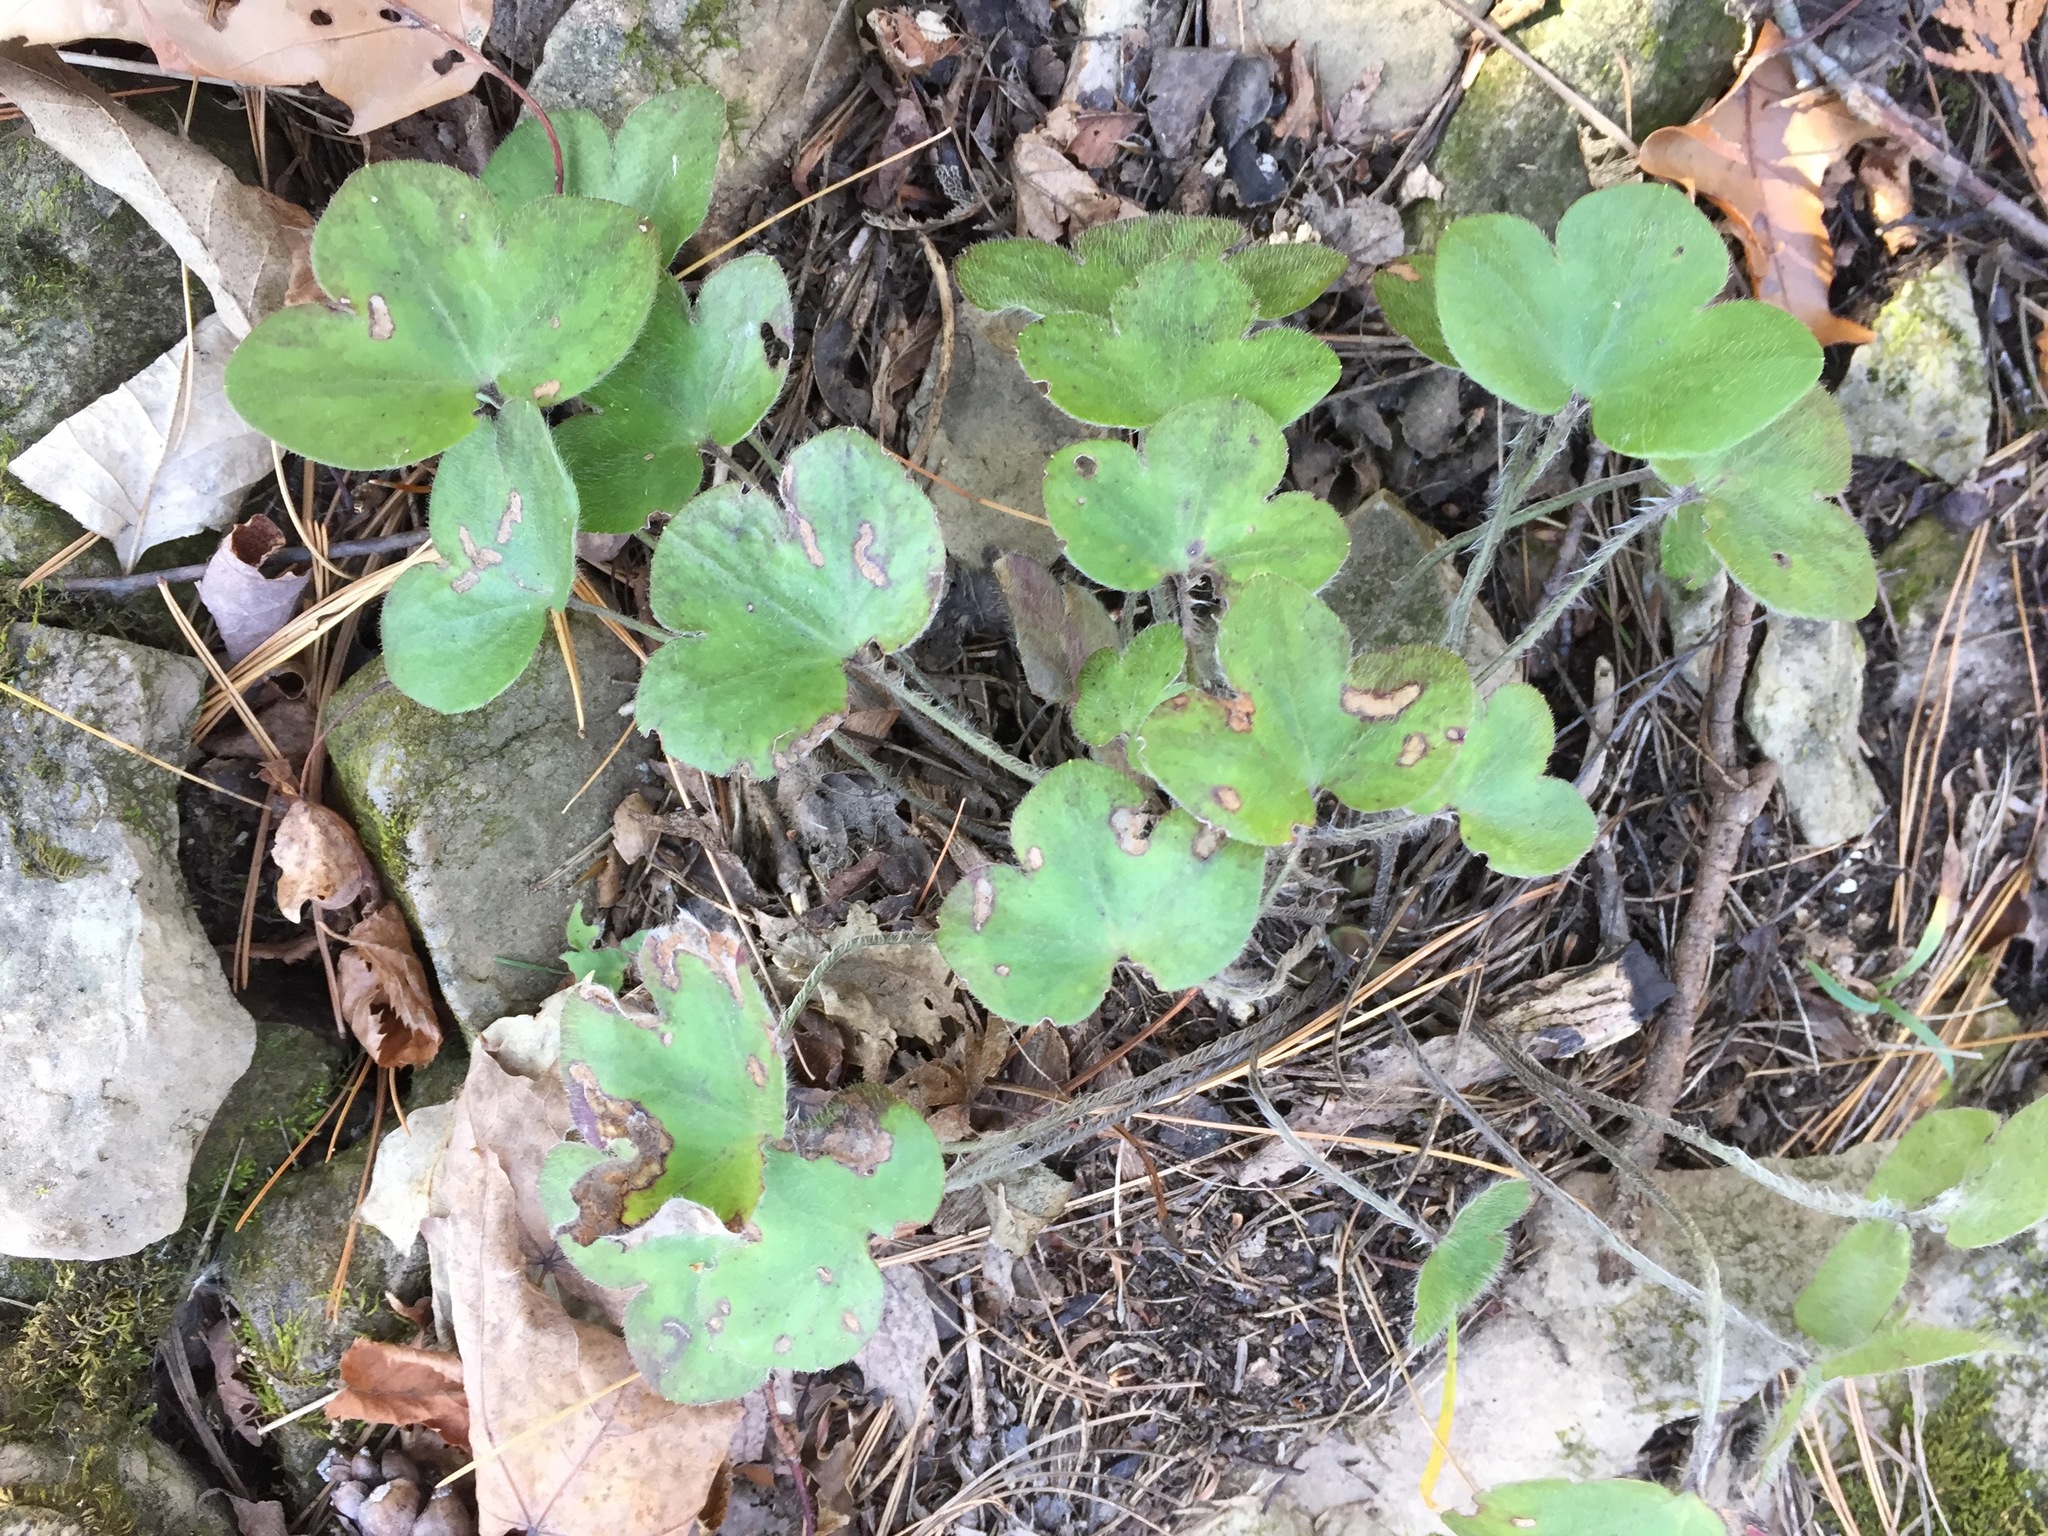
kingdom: Plantae
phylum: Tracheophyta
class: Magnoliopsida
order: Ranunculales
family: Ranunculaceae
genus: Hepatica
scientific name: Hepatica americana
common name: American hepatica
